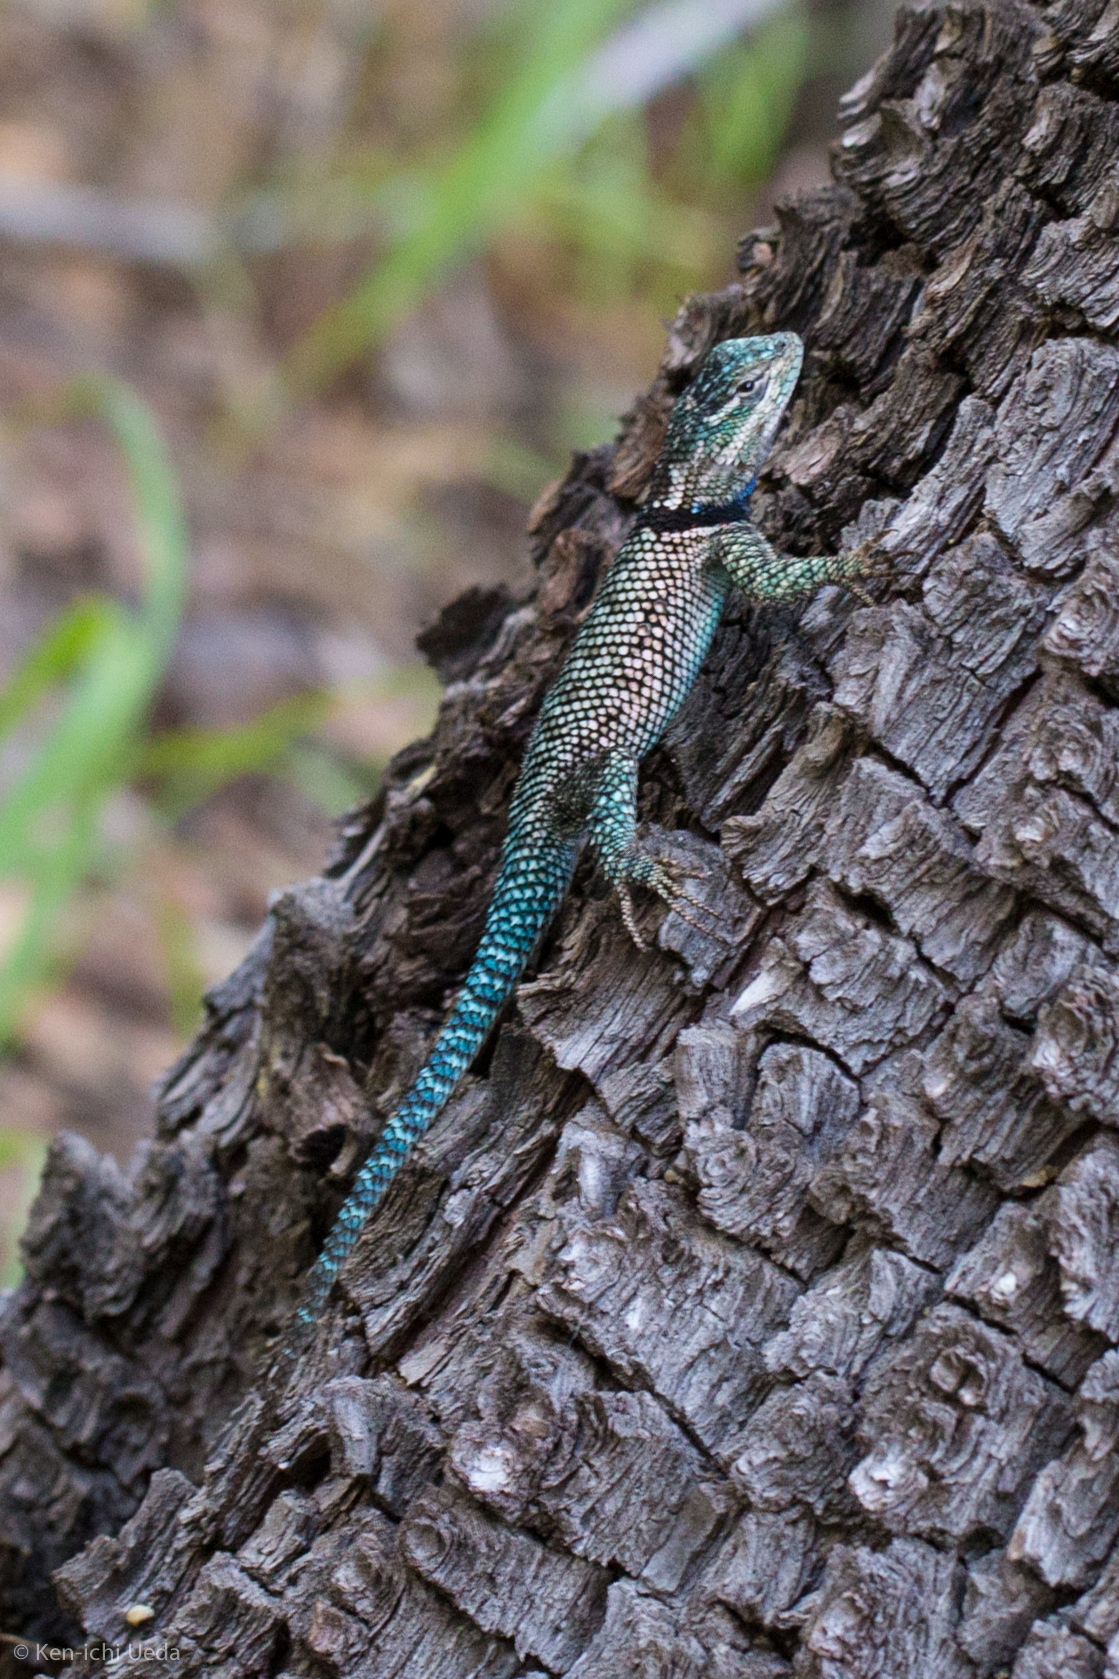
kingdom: Animalia
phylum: Chordata
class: Squamata
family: Phrynosomatidae
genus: Sceloporus
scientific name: Sceloporus jarrovii
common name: Yarrow's spiny lizard
